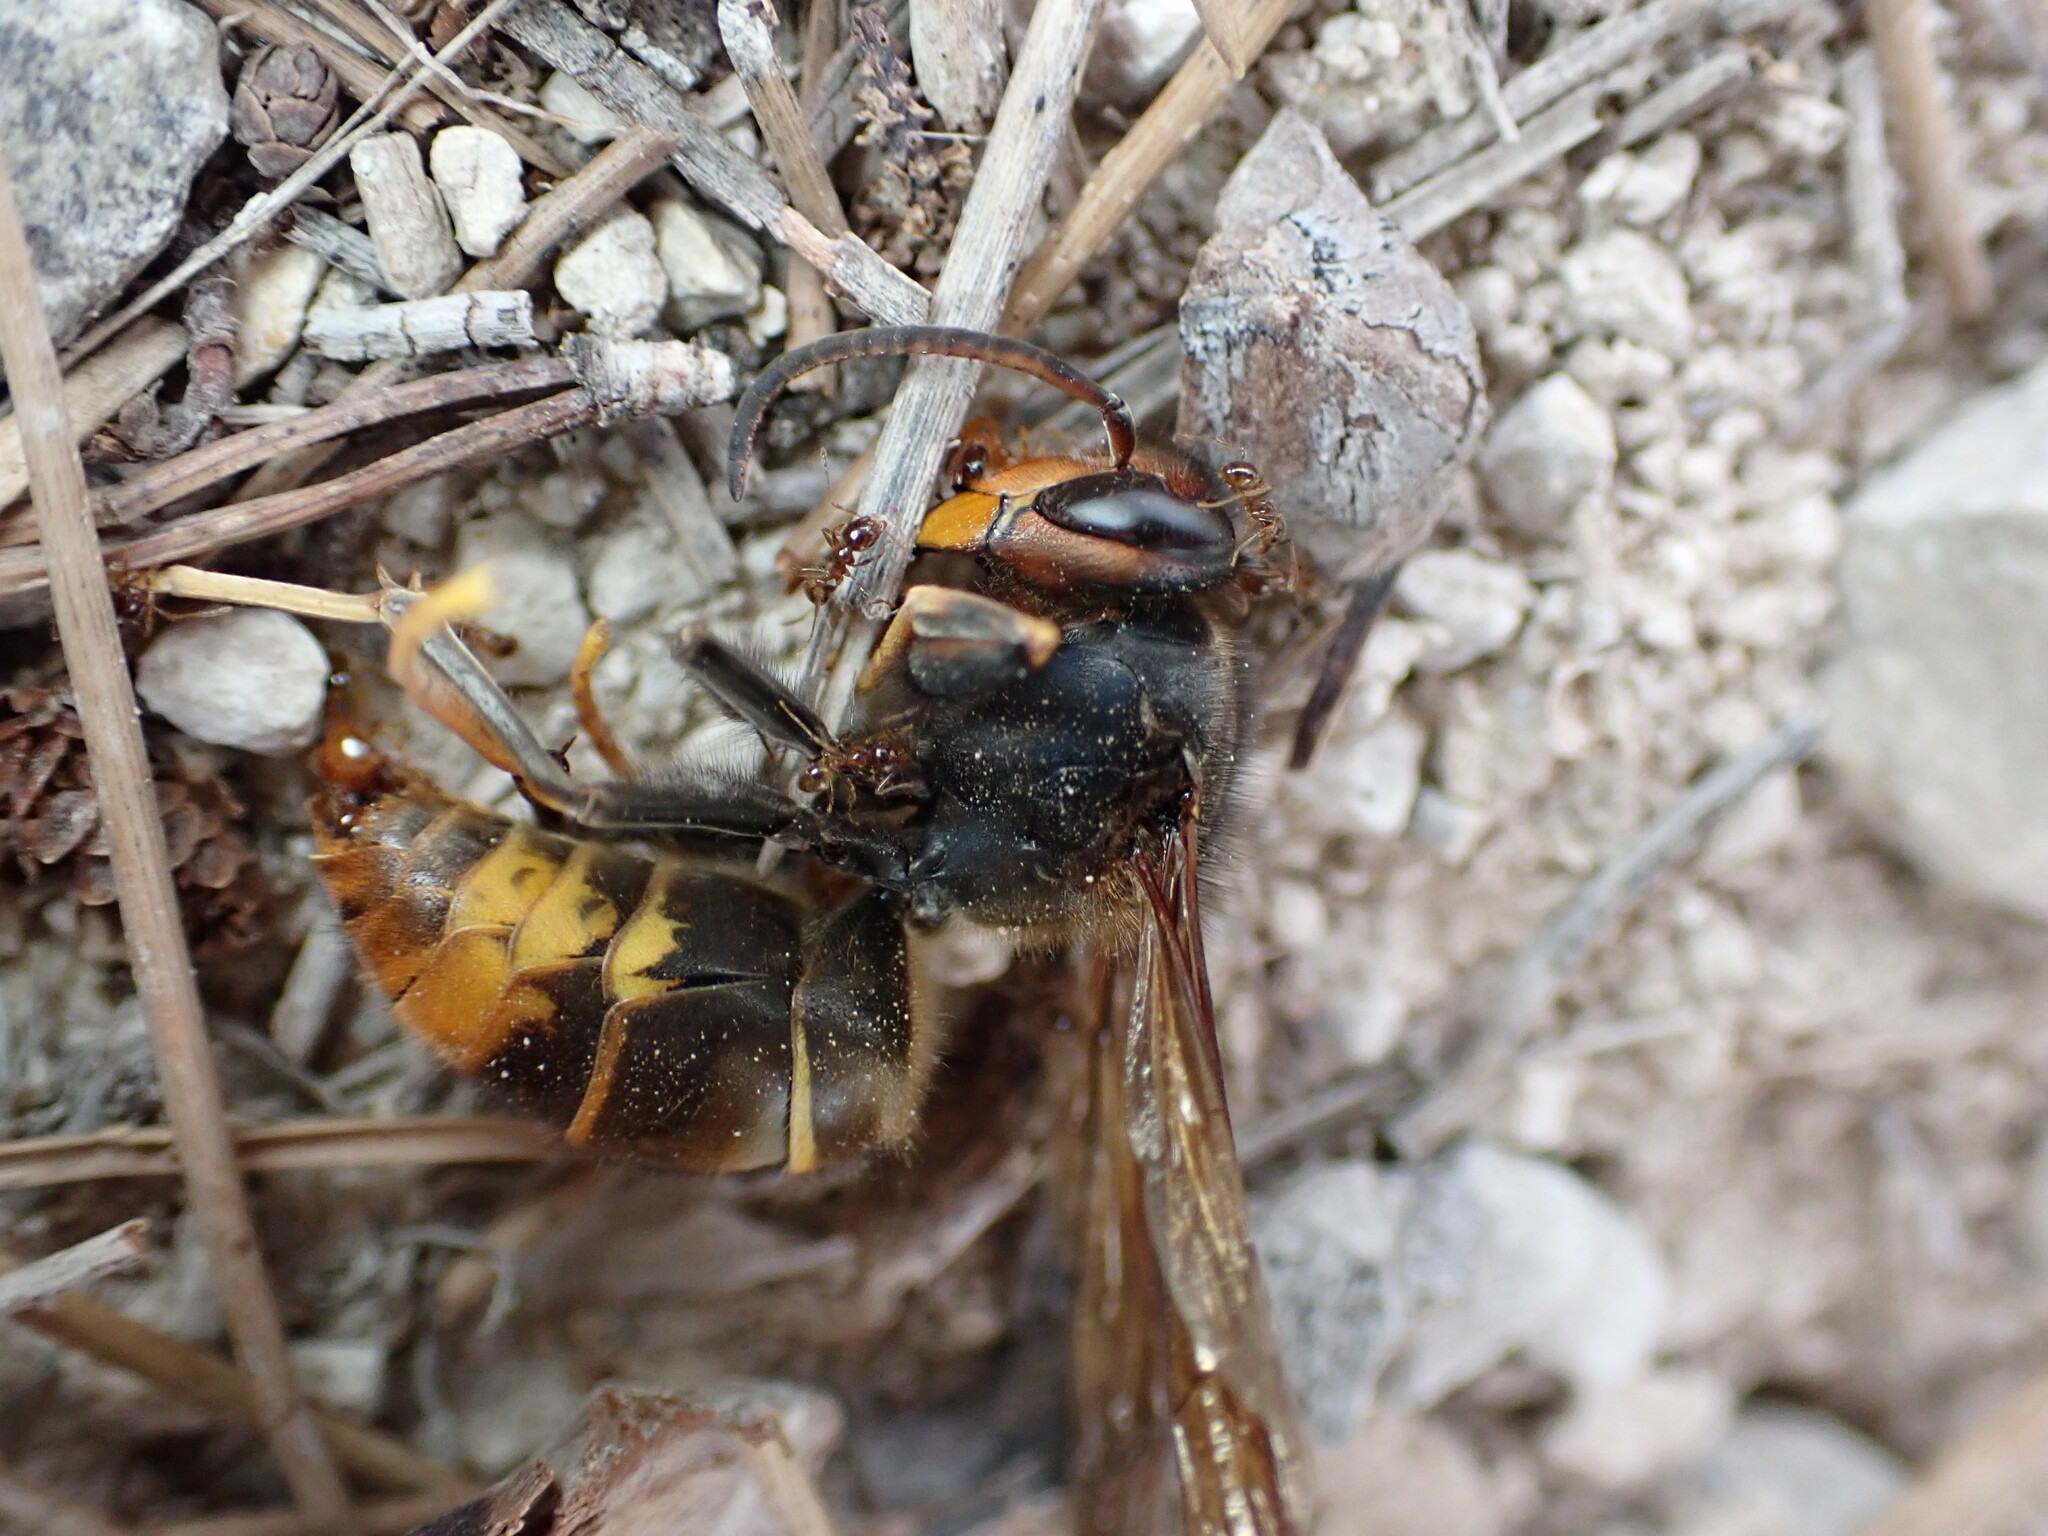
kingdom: Animalia
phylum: Arthropoda
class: Insecta
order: Hymenoptera
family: Vespidae
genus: Vespa
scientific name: Vespa velutina
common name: Asian hornet
